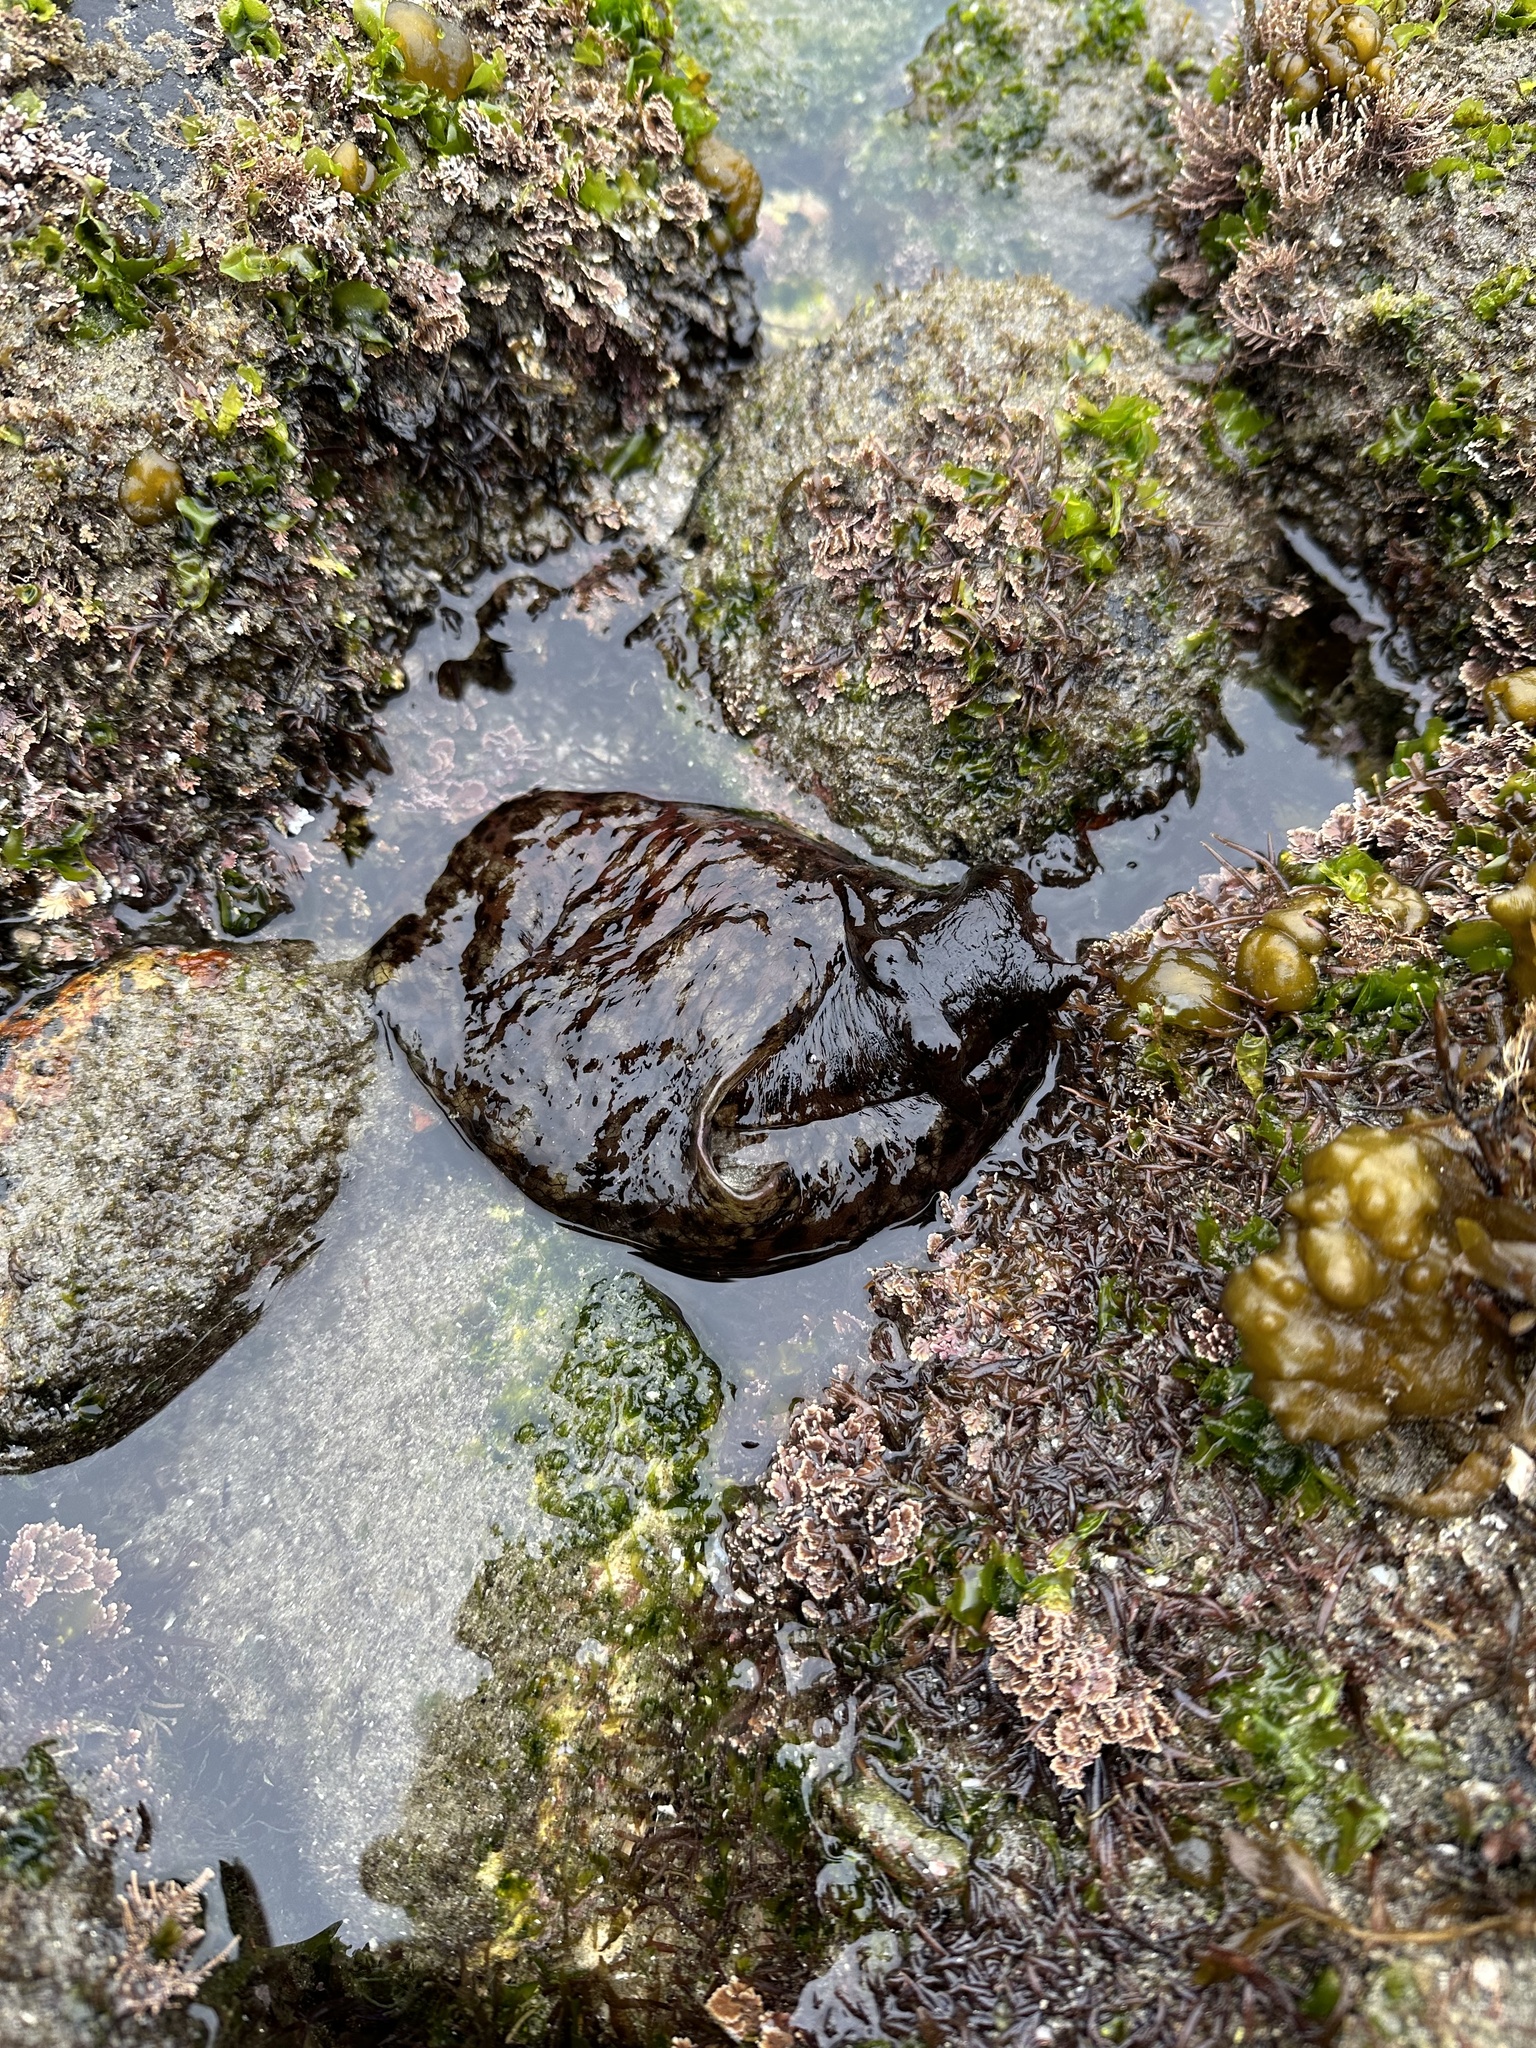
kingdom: Animalia
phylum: Mollusca
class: Gastropoda
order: Aplysiida
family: Aplysiidae
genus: Aplysia
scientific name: Aplysia californica
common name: California seahare
